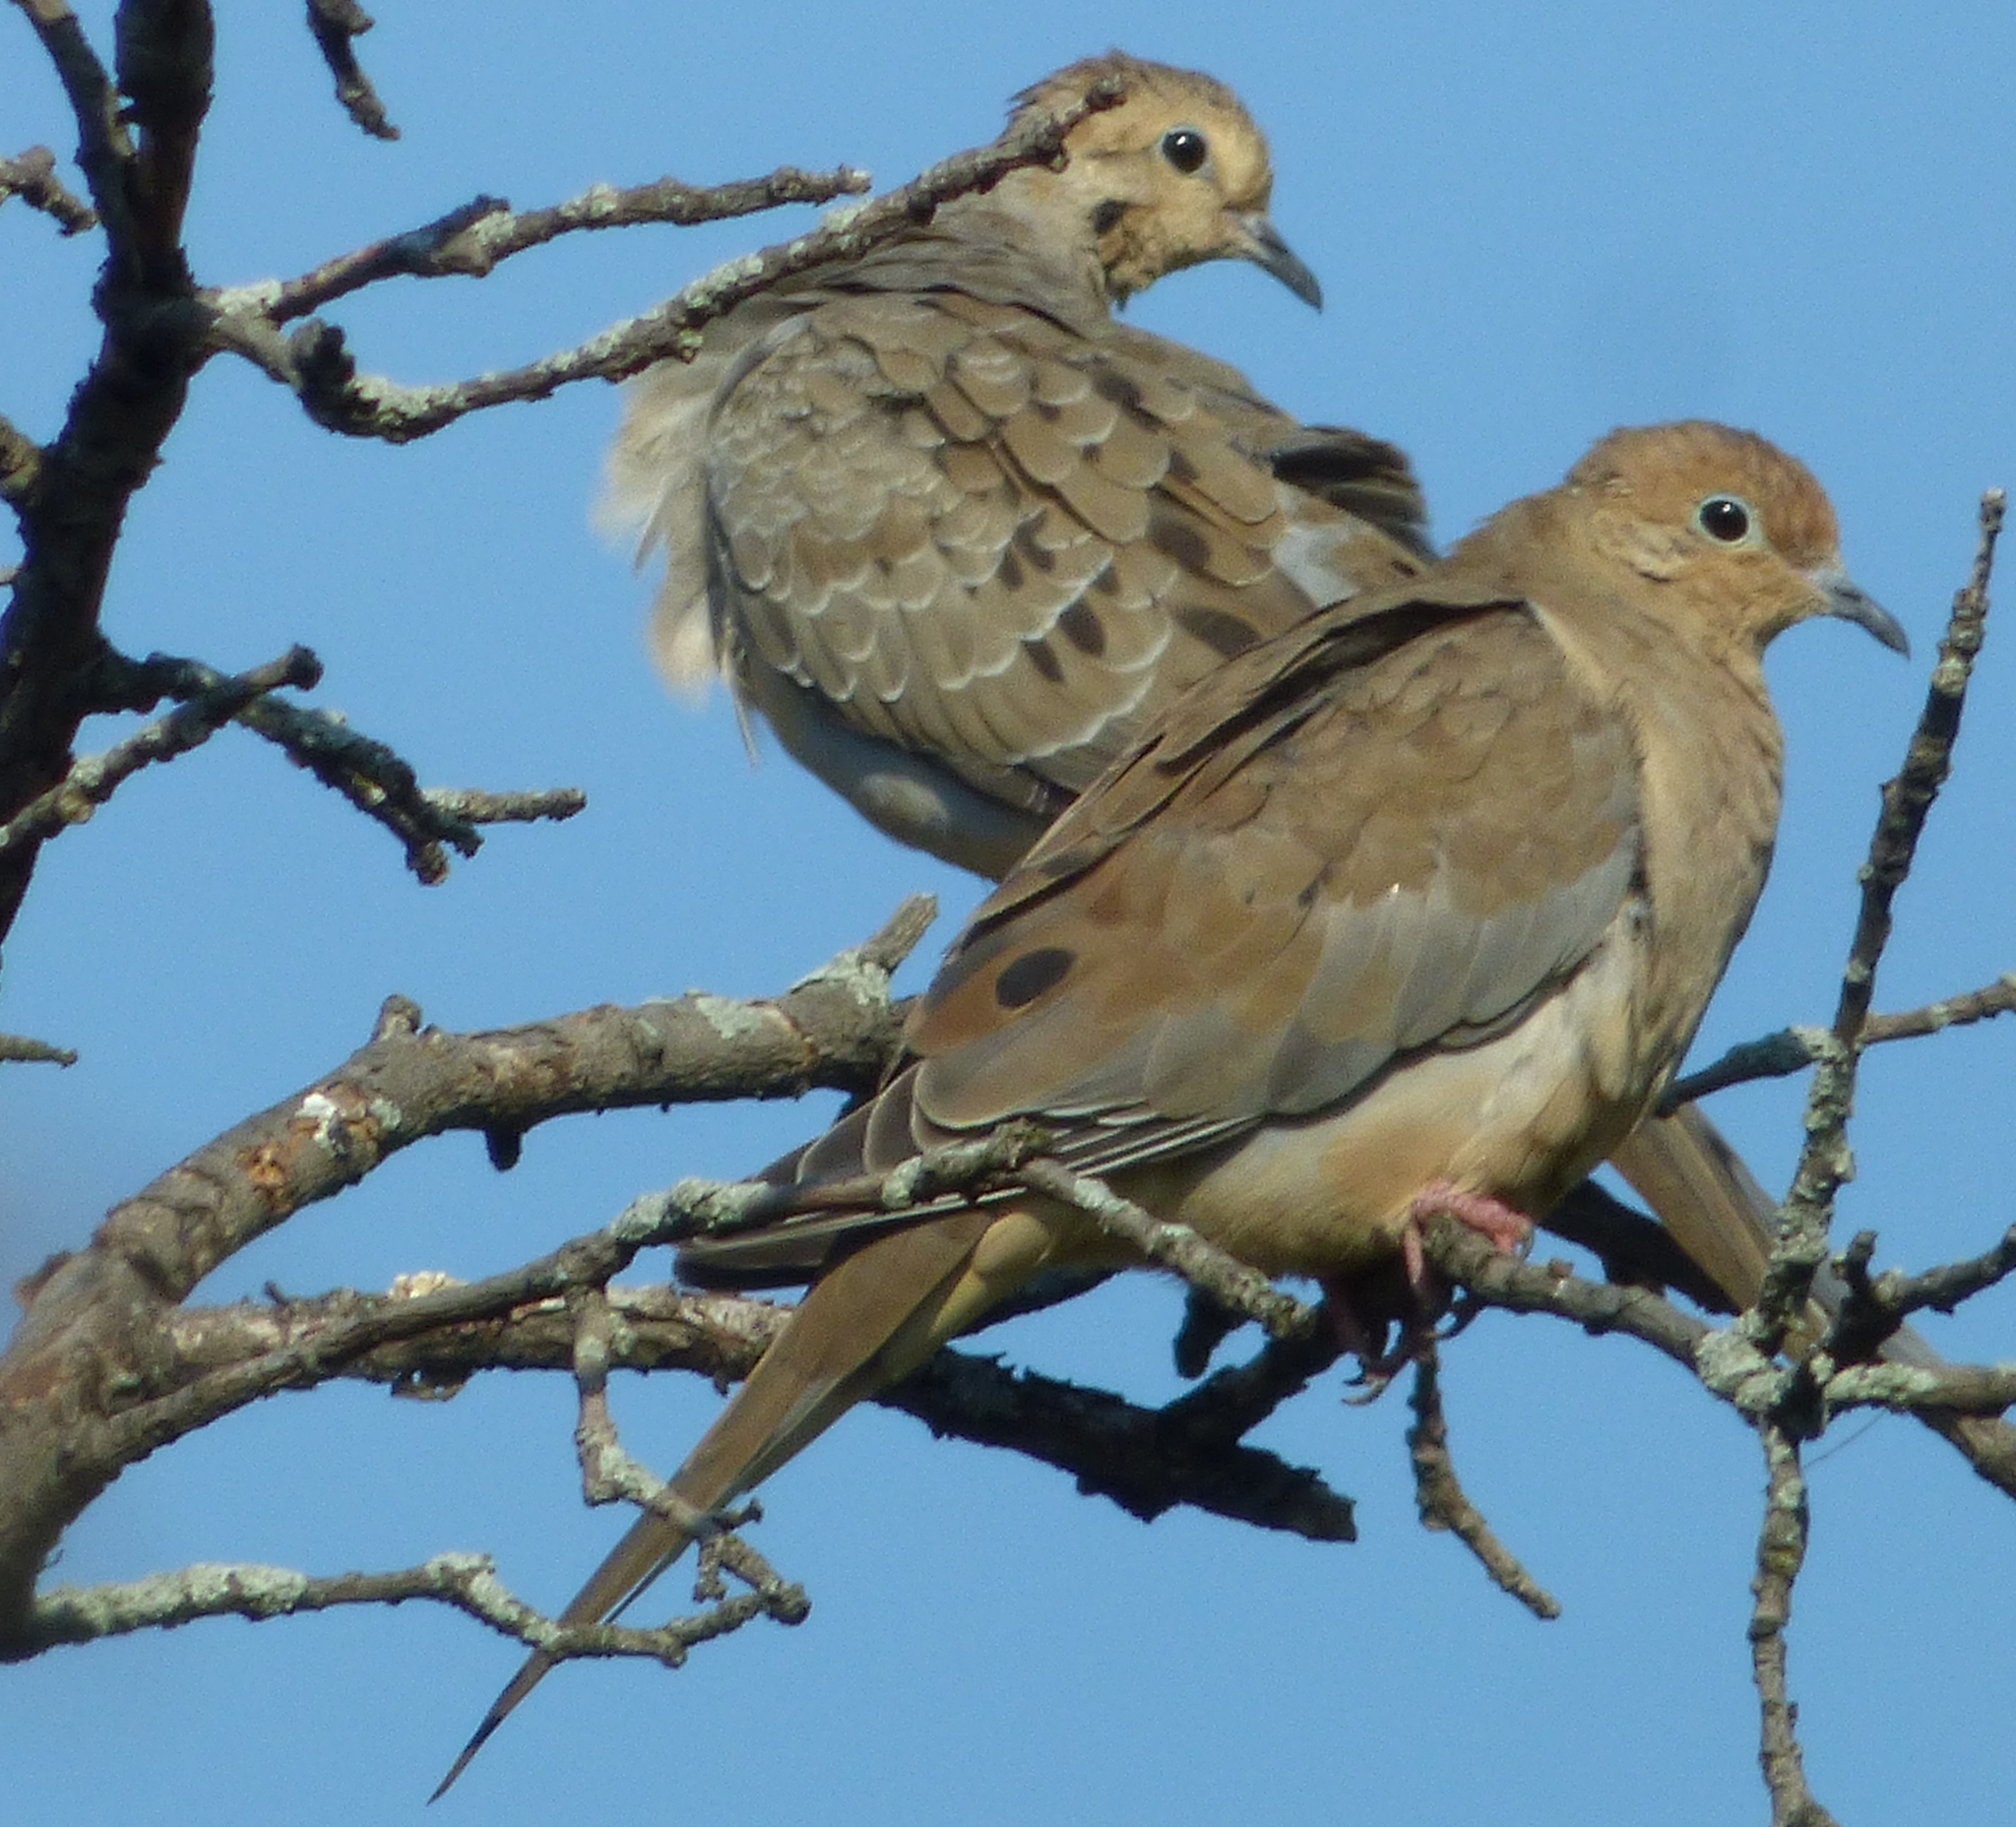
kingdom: Animalia
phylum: Chordata
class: Aves
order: Columbiformes
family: Columbidae
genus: Zenaida
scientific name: Zenaida macroura
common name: Mourning dove
